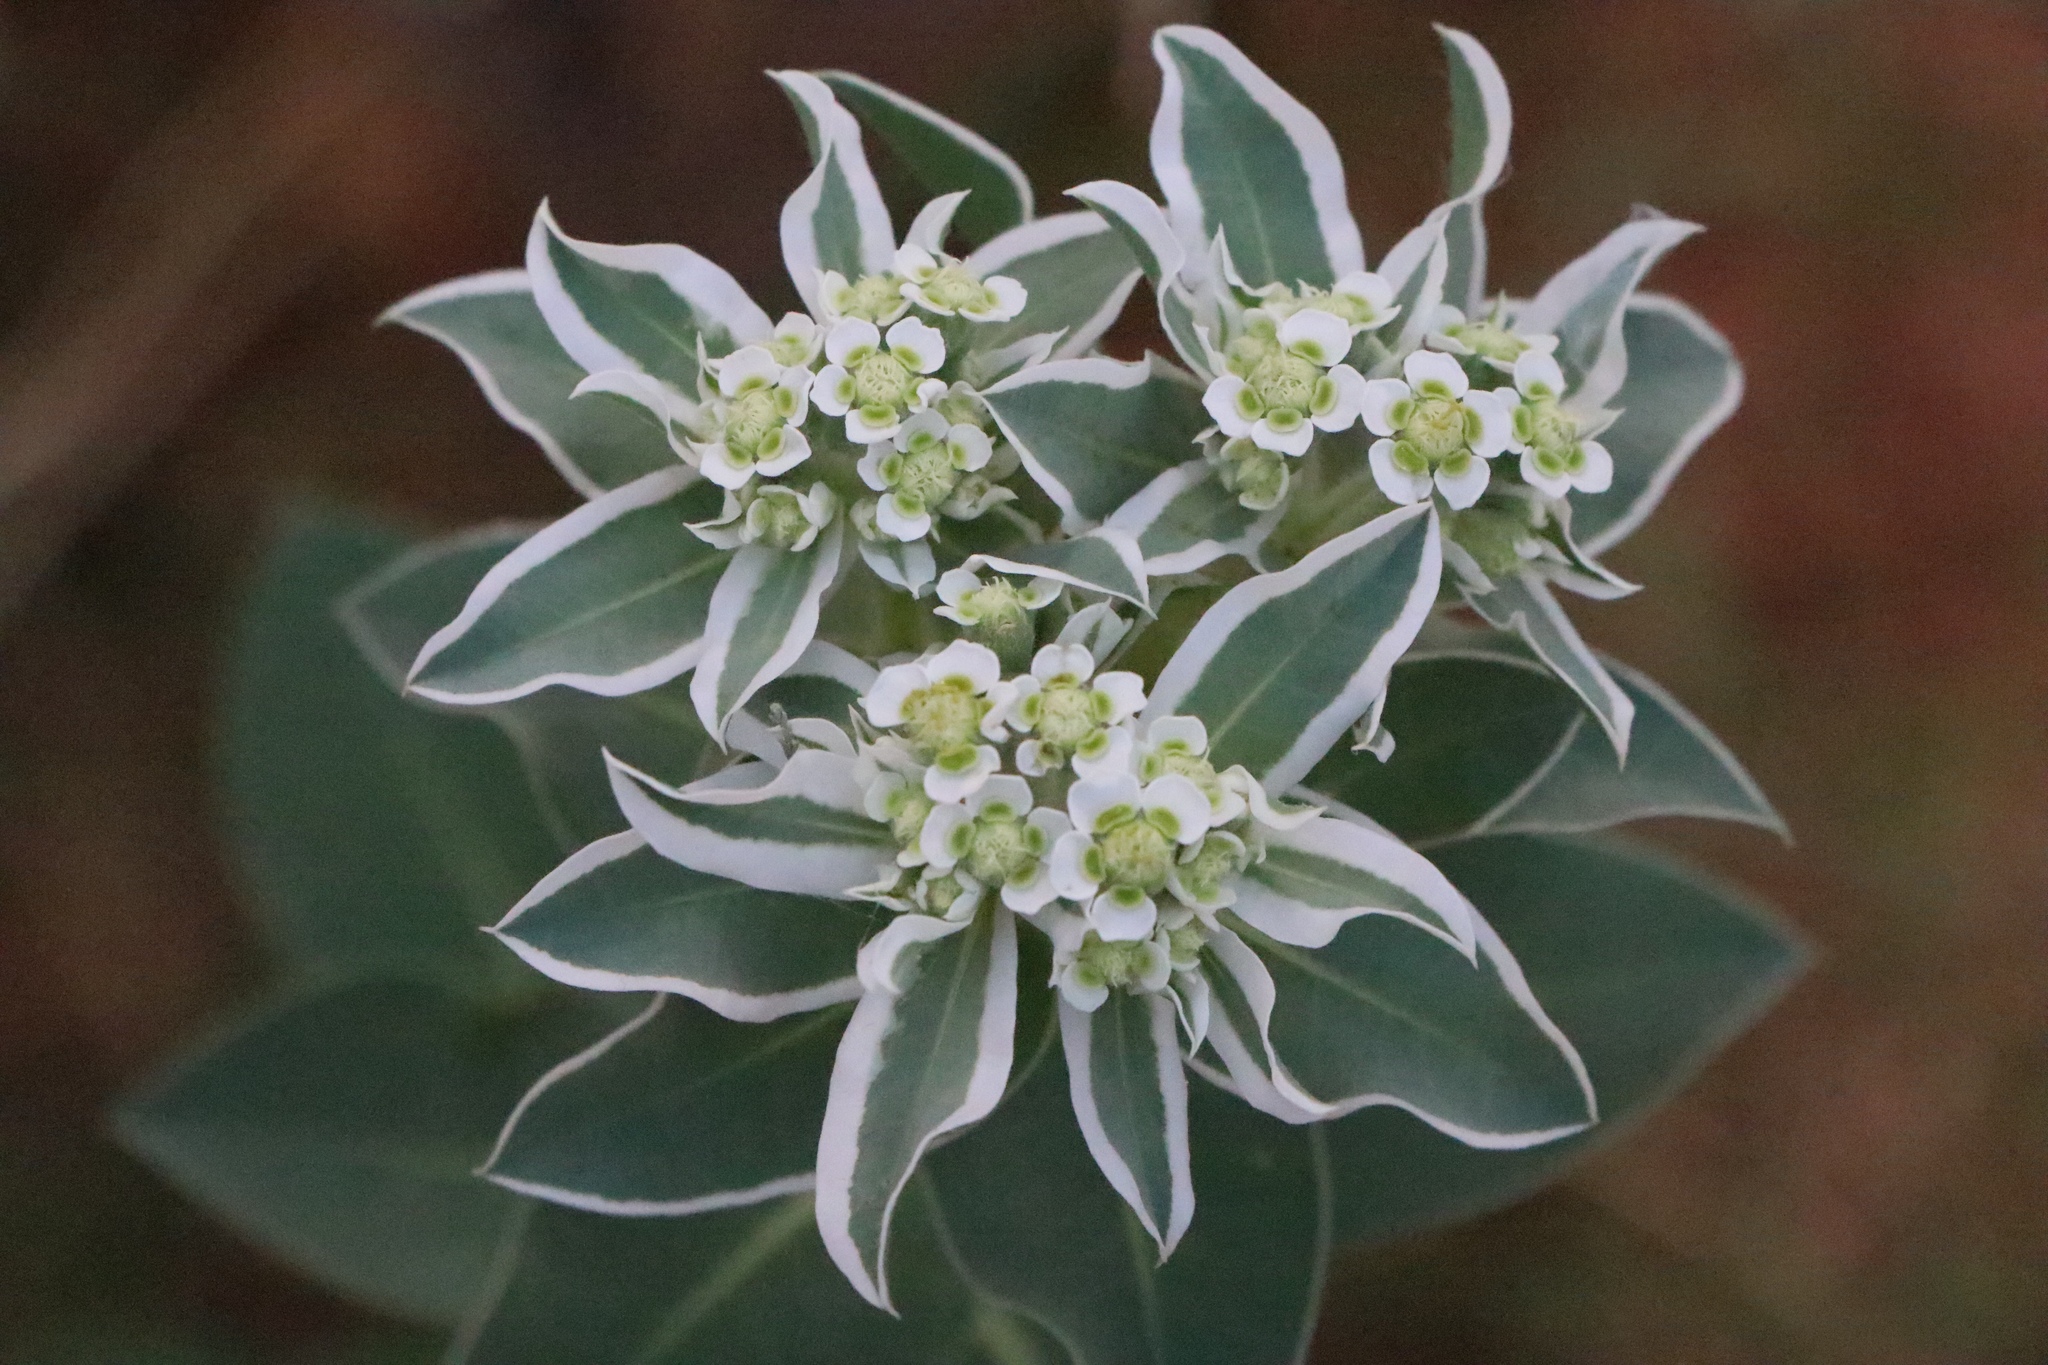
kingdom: Plantae
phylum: Tracheophyta
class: Magnoliopsida
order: Malpighiales
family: Euphorbiaceae
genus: Euphorbia
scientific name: Euphorbia marginata
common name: Ghostweed
